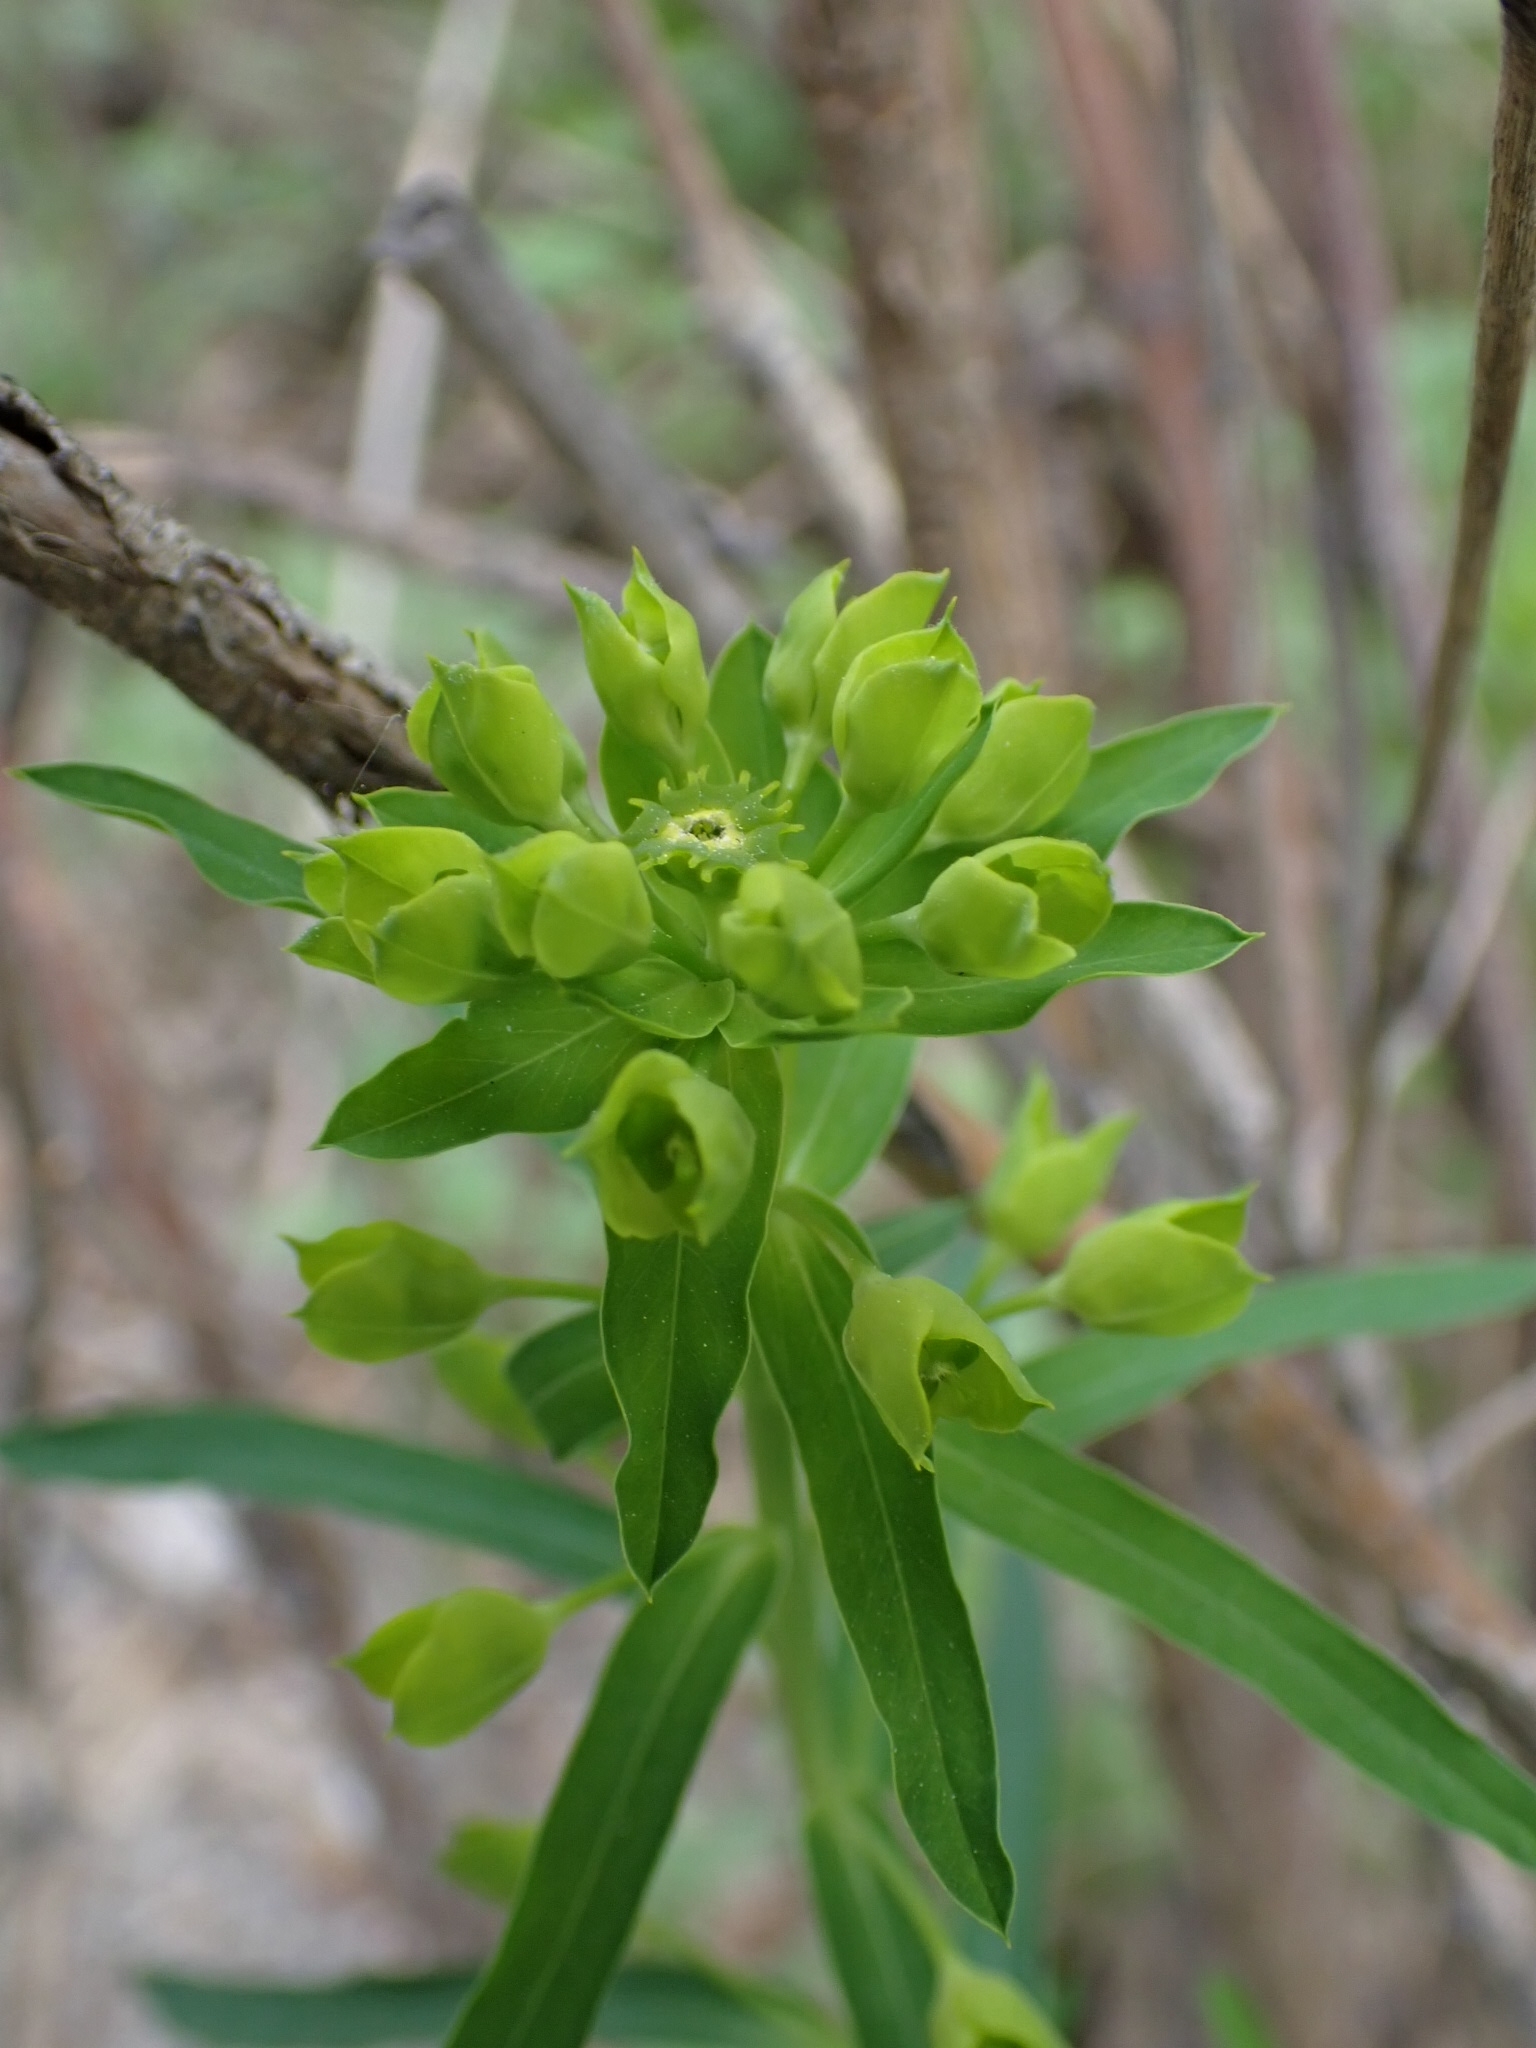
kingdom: Plantae
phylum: Tracheophyta
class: Magnoliopsida
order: Malpighiales
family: Euphorbiaceae
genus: Euphorbia
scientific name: Euphorbia virgata
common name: Leafy spurge
